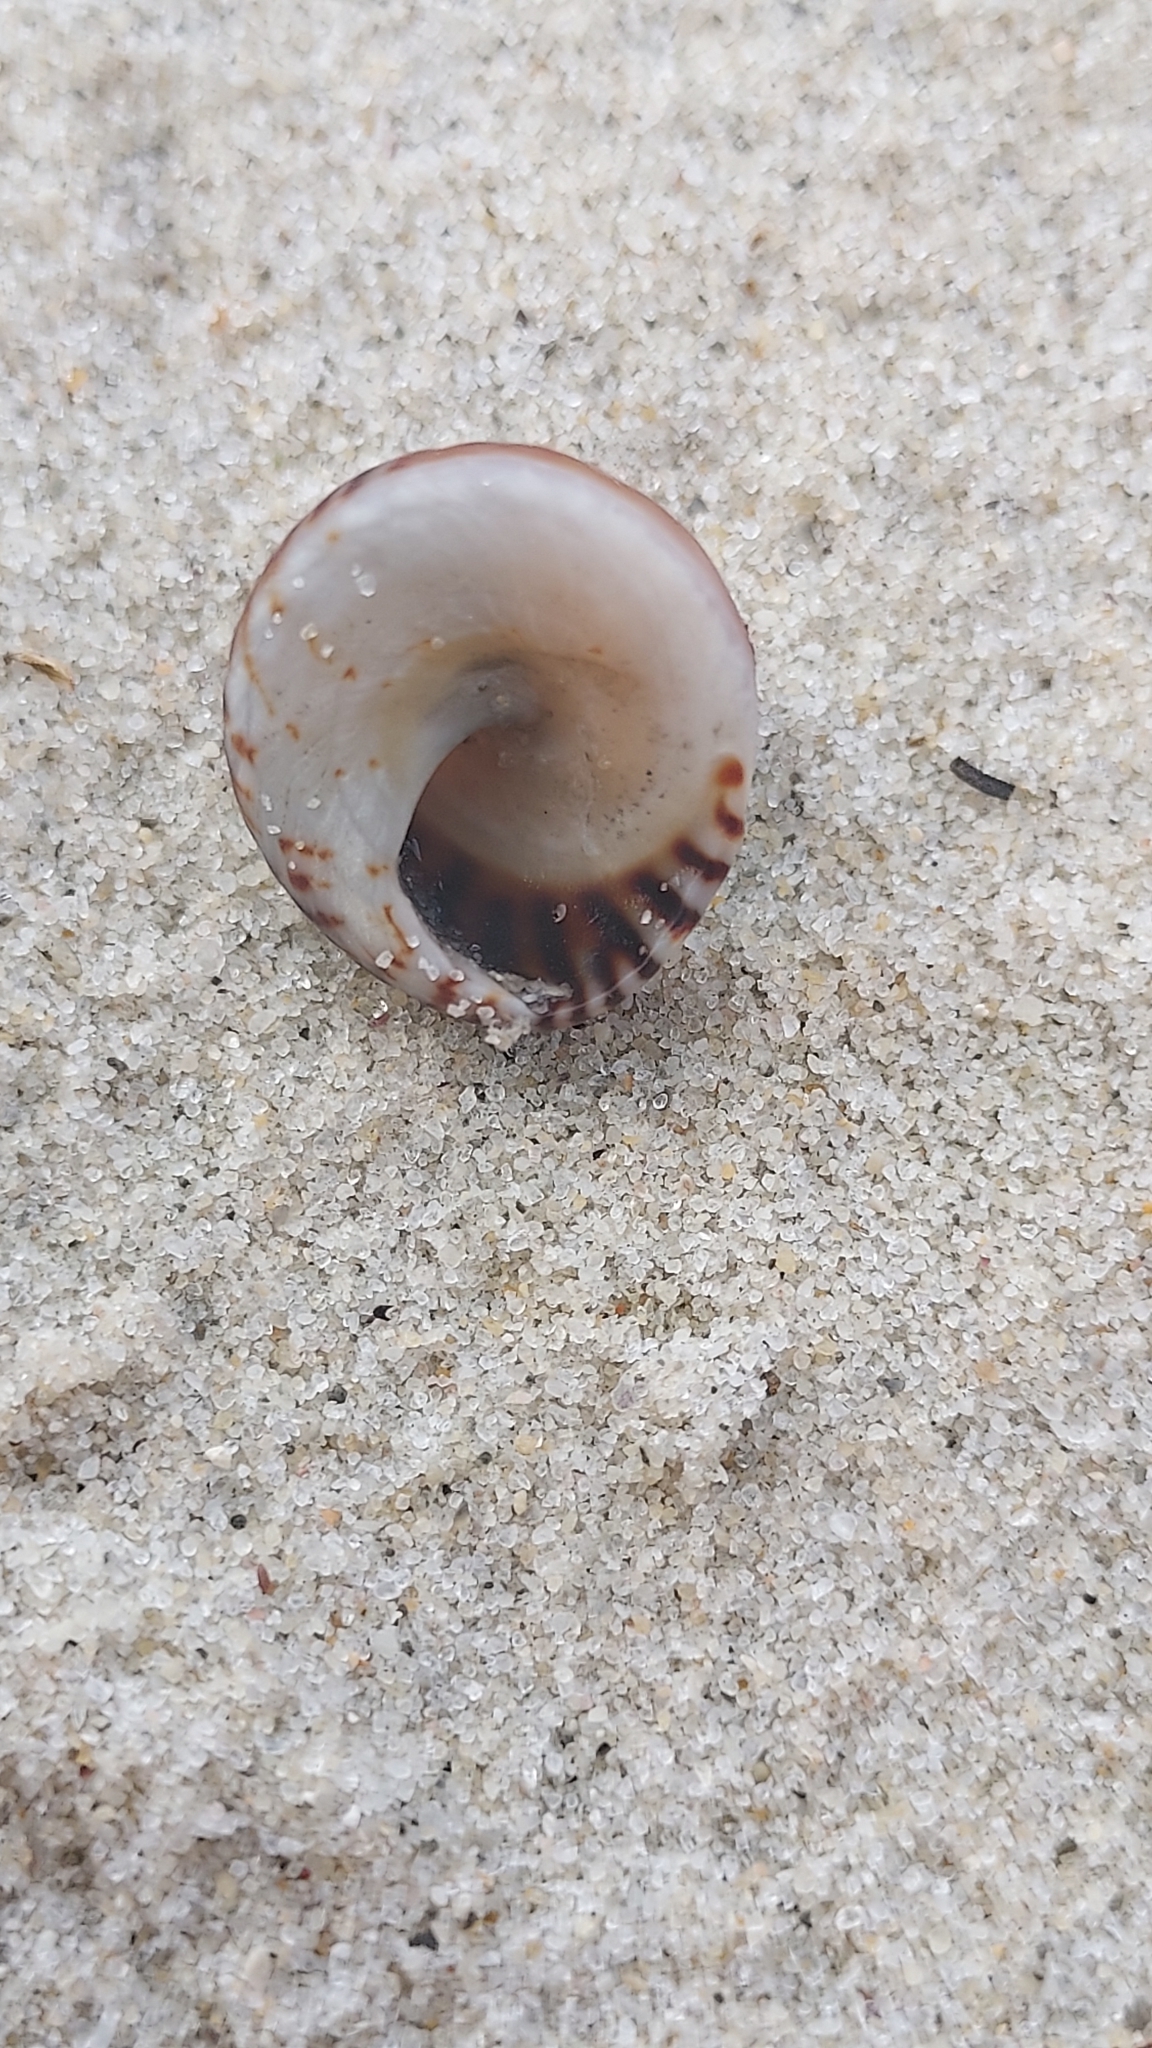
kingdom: Animalia
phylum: Mollusca
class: Gastropoda
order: Littorinimorpha
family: Littorinidae
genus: Bembicium
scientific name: Bembicium nanum
